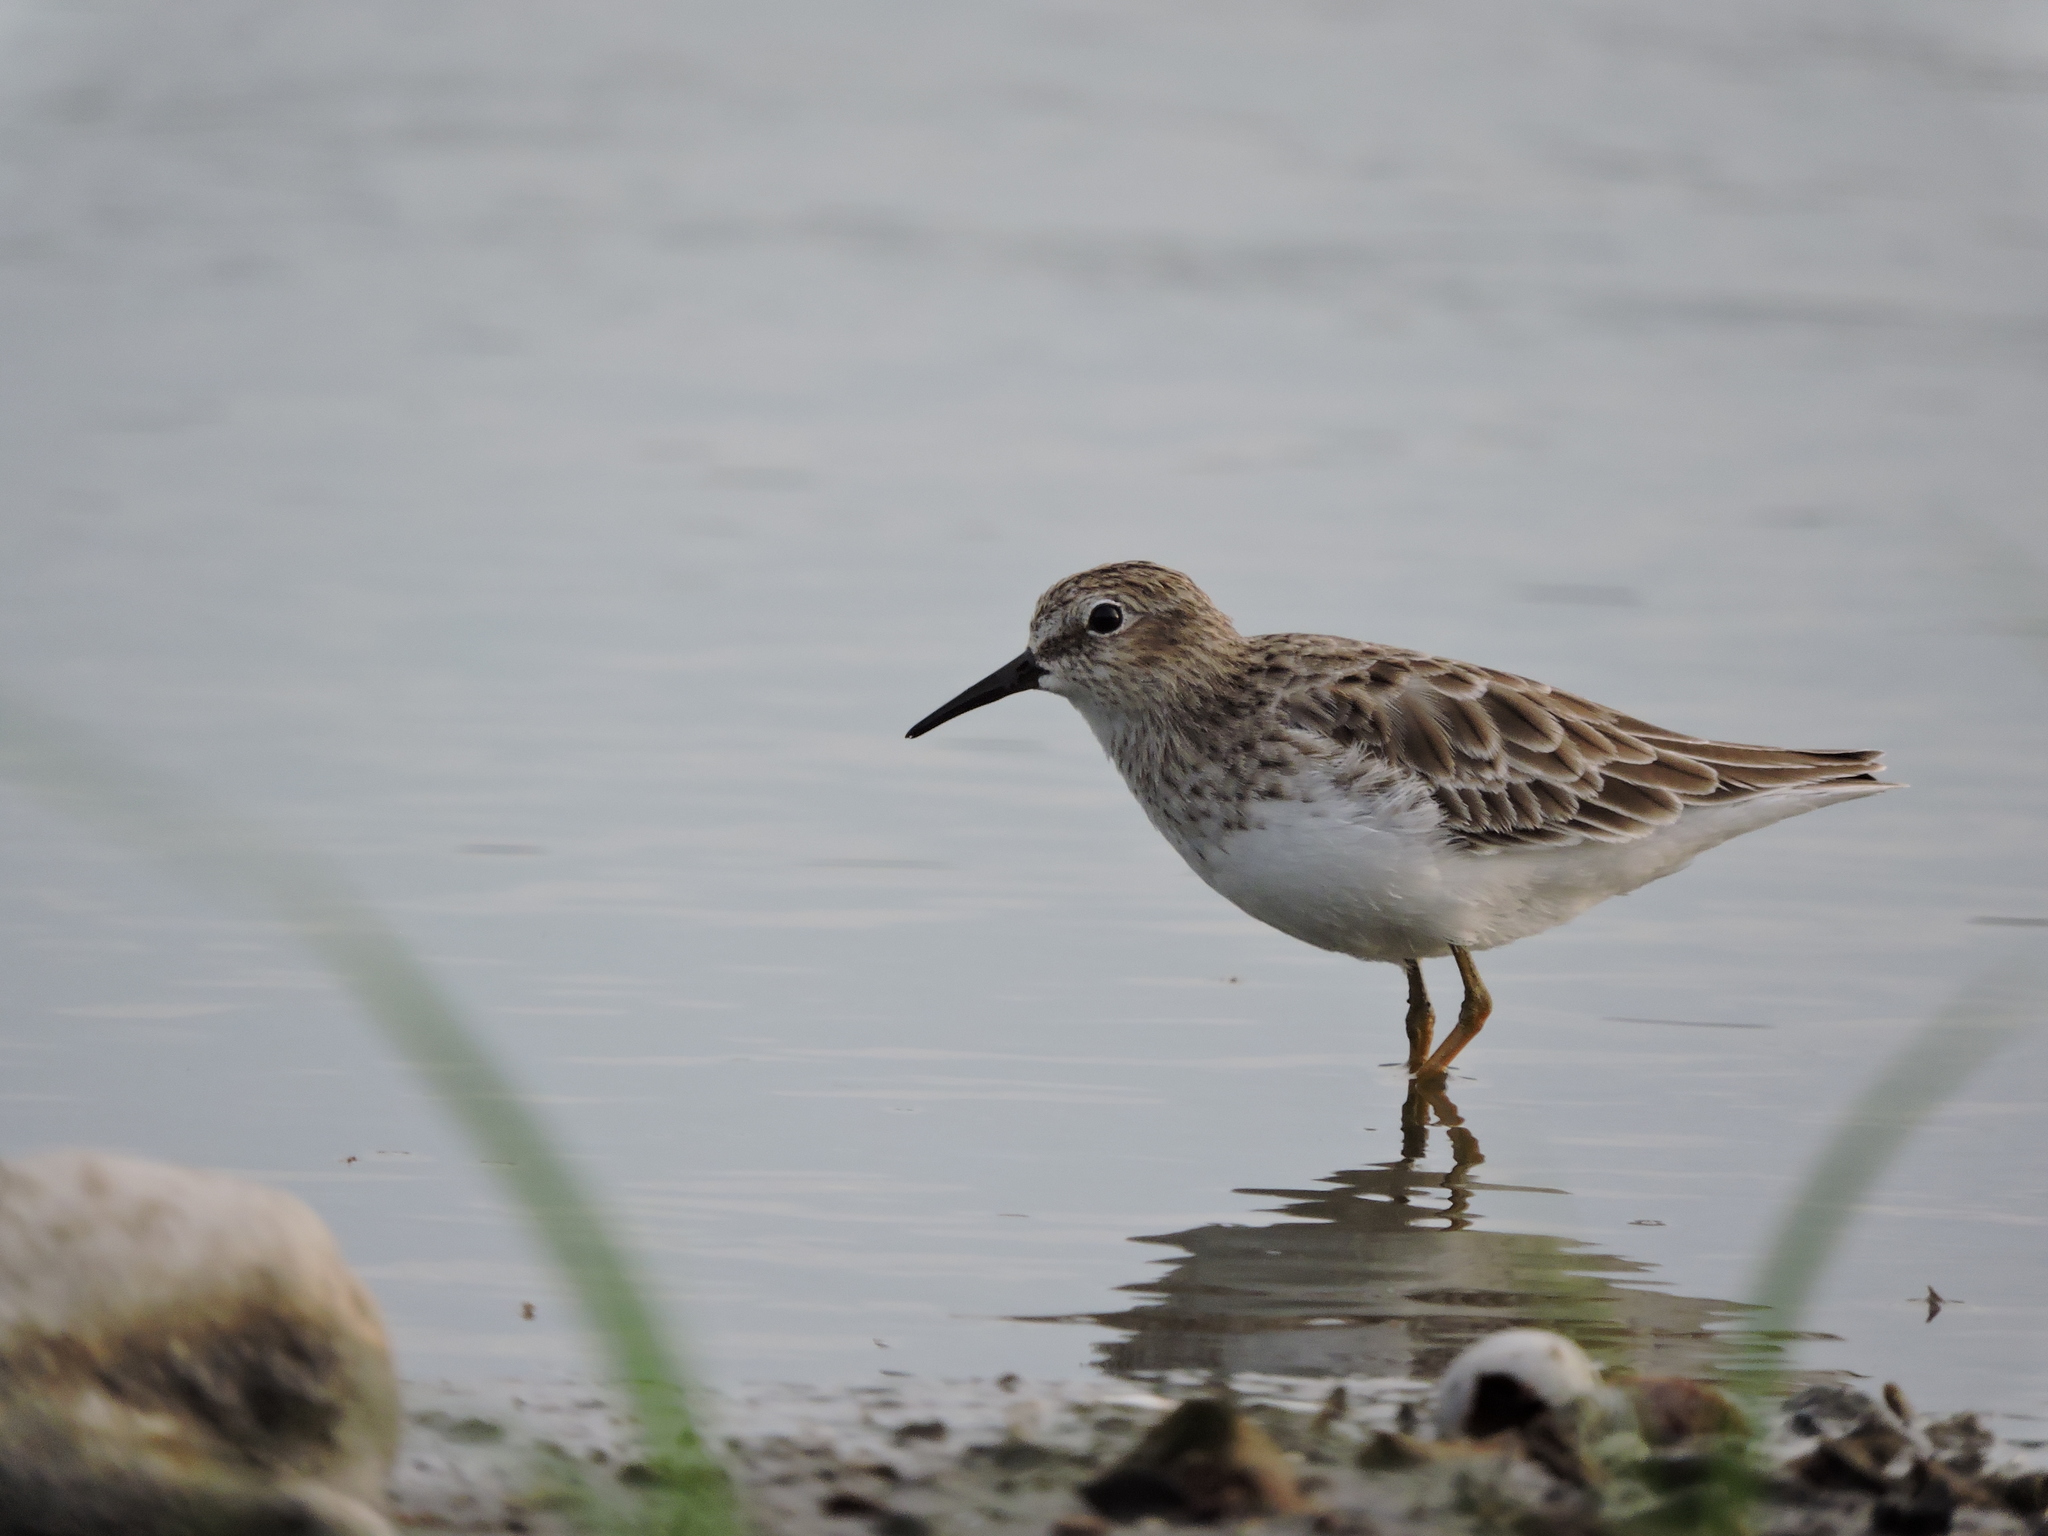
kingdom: Animalia
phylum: Chordata
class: Aves
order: Charadriiformes
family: Scolopacidae
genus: Calidris
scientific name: Calidris minutilla
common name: Least sandpiper
